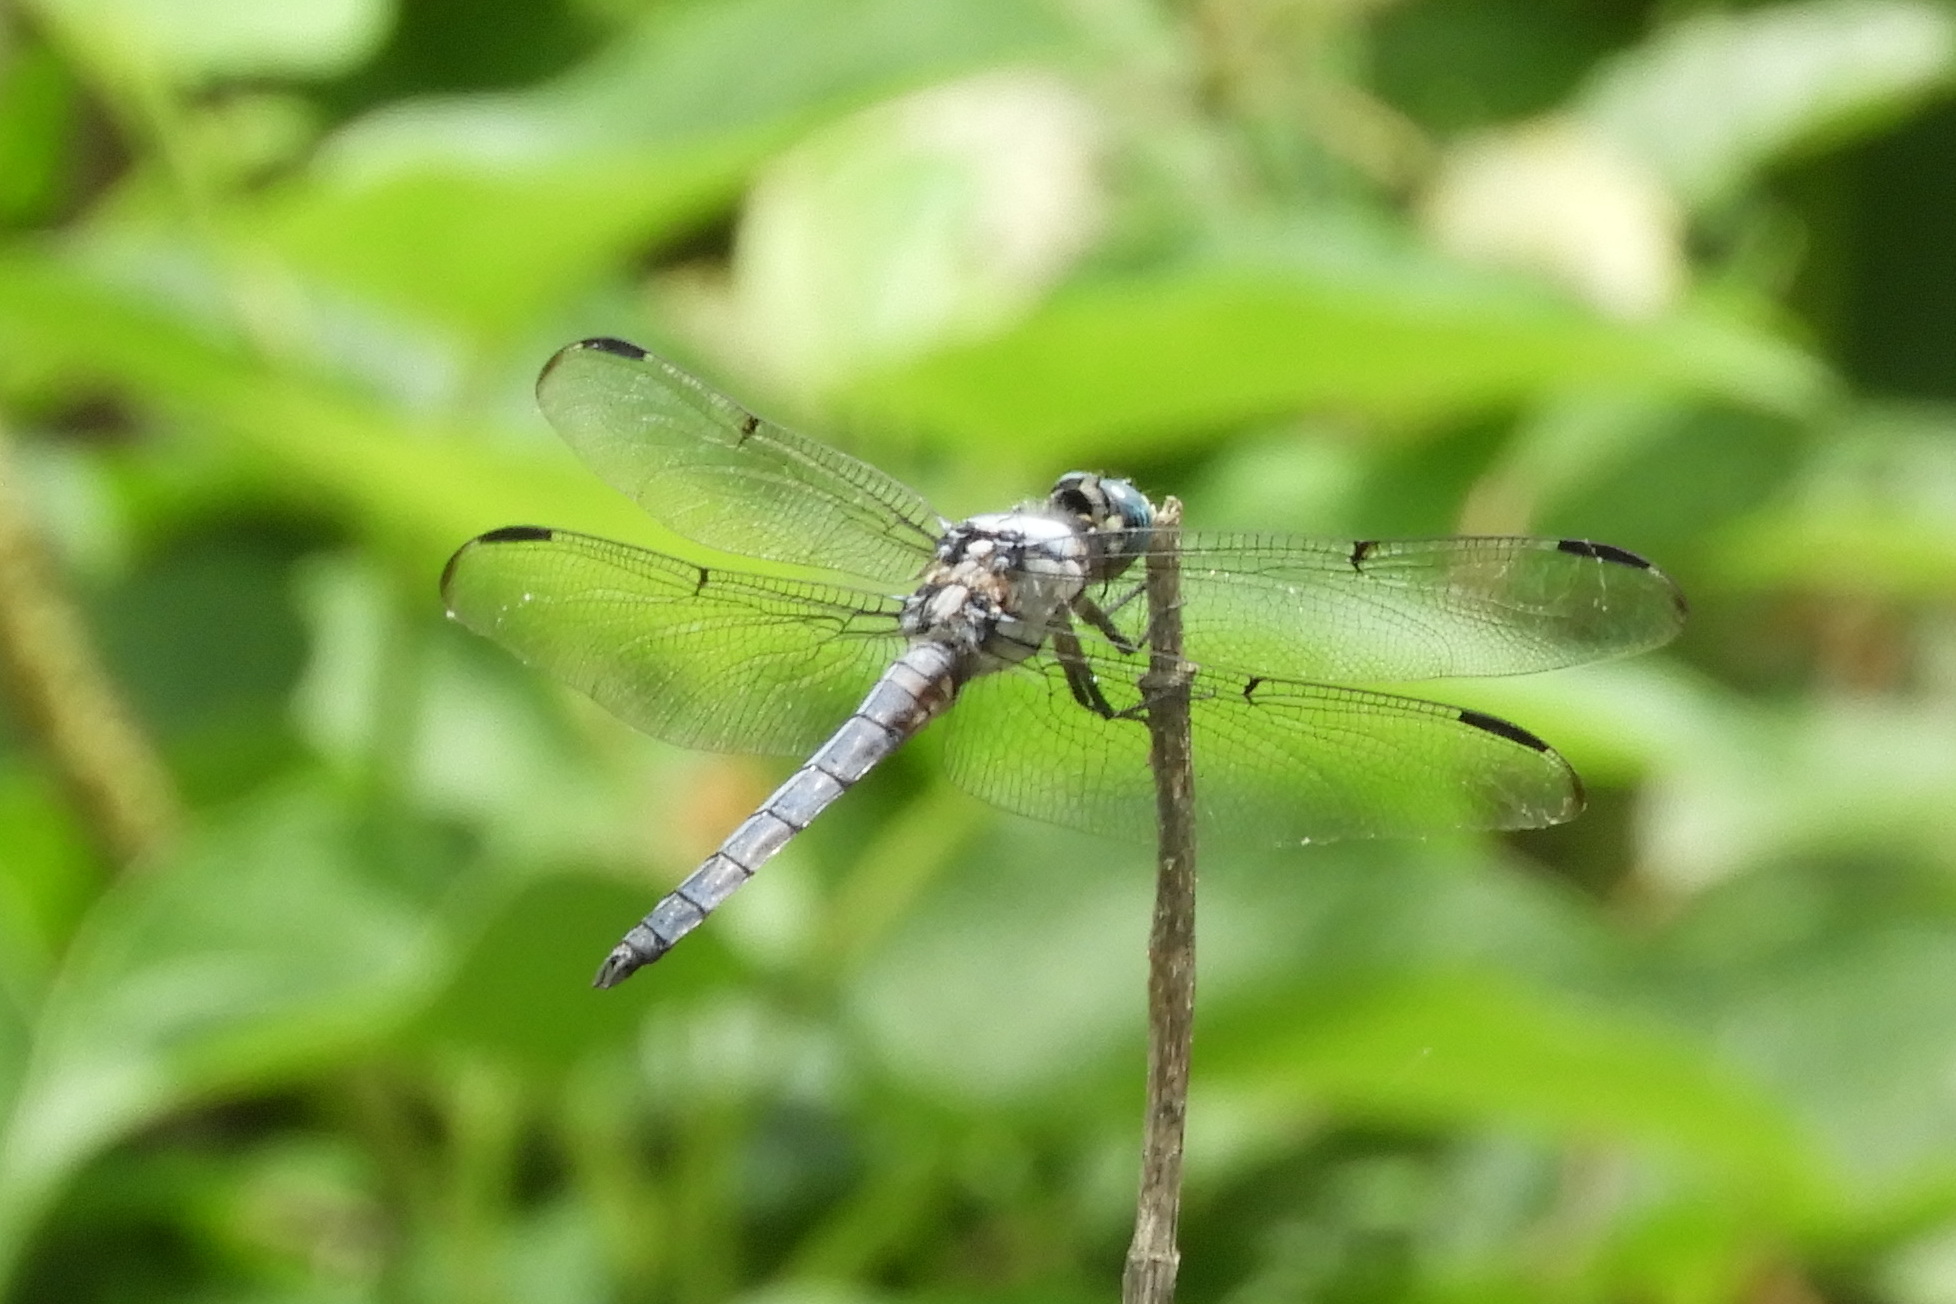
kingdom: Animalia
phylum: Arthropoda
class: Insecta
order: Odonata
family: Libellulidae
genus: Libellula
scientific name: Libellula vibrans
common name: Great blue skimmer
